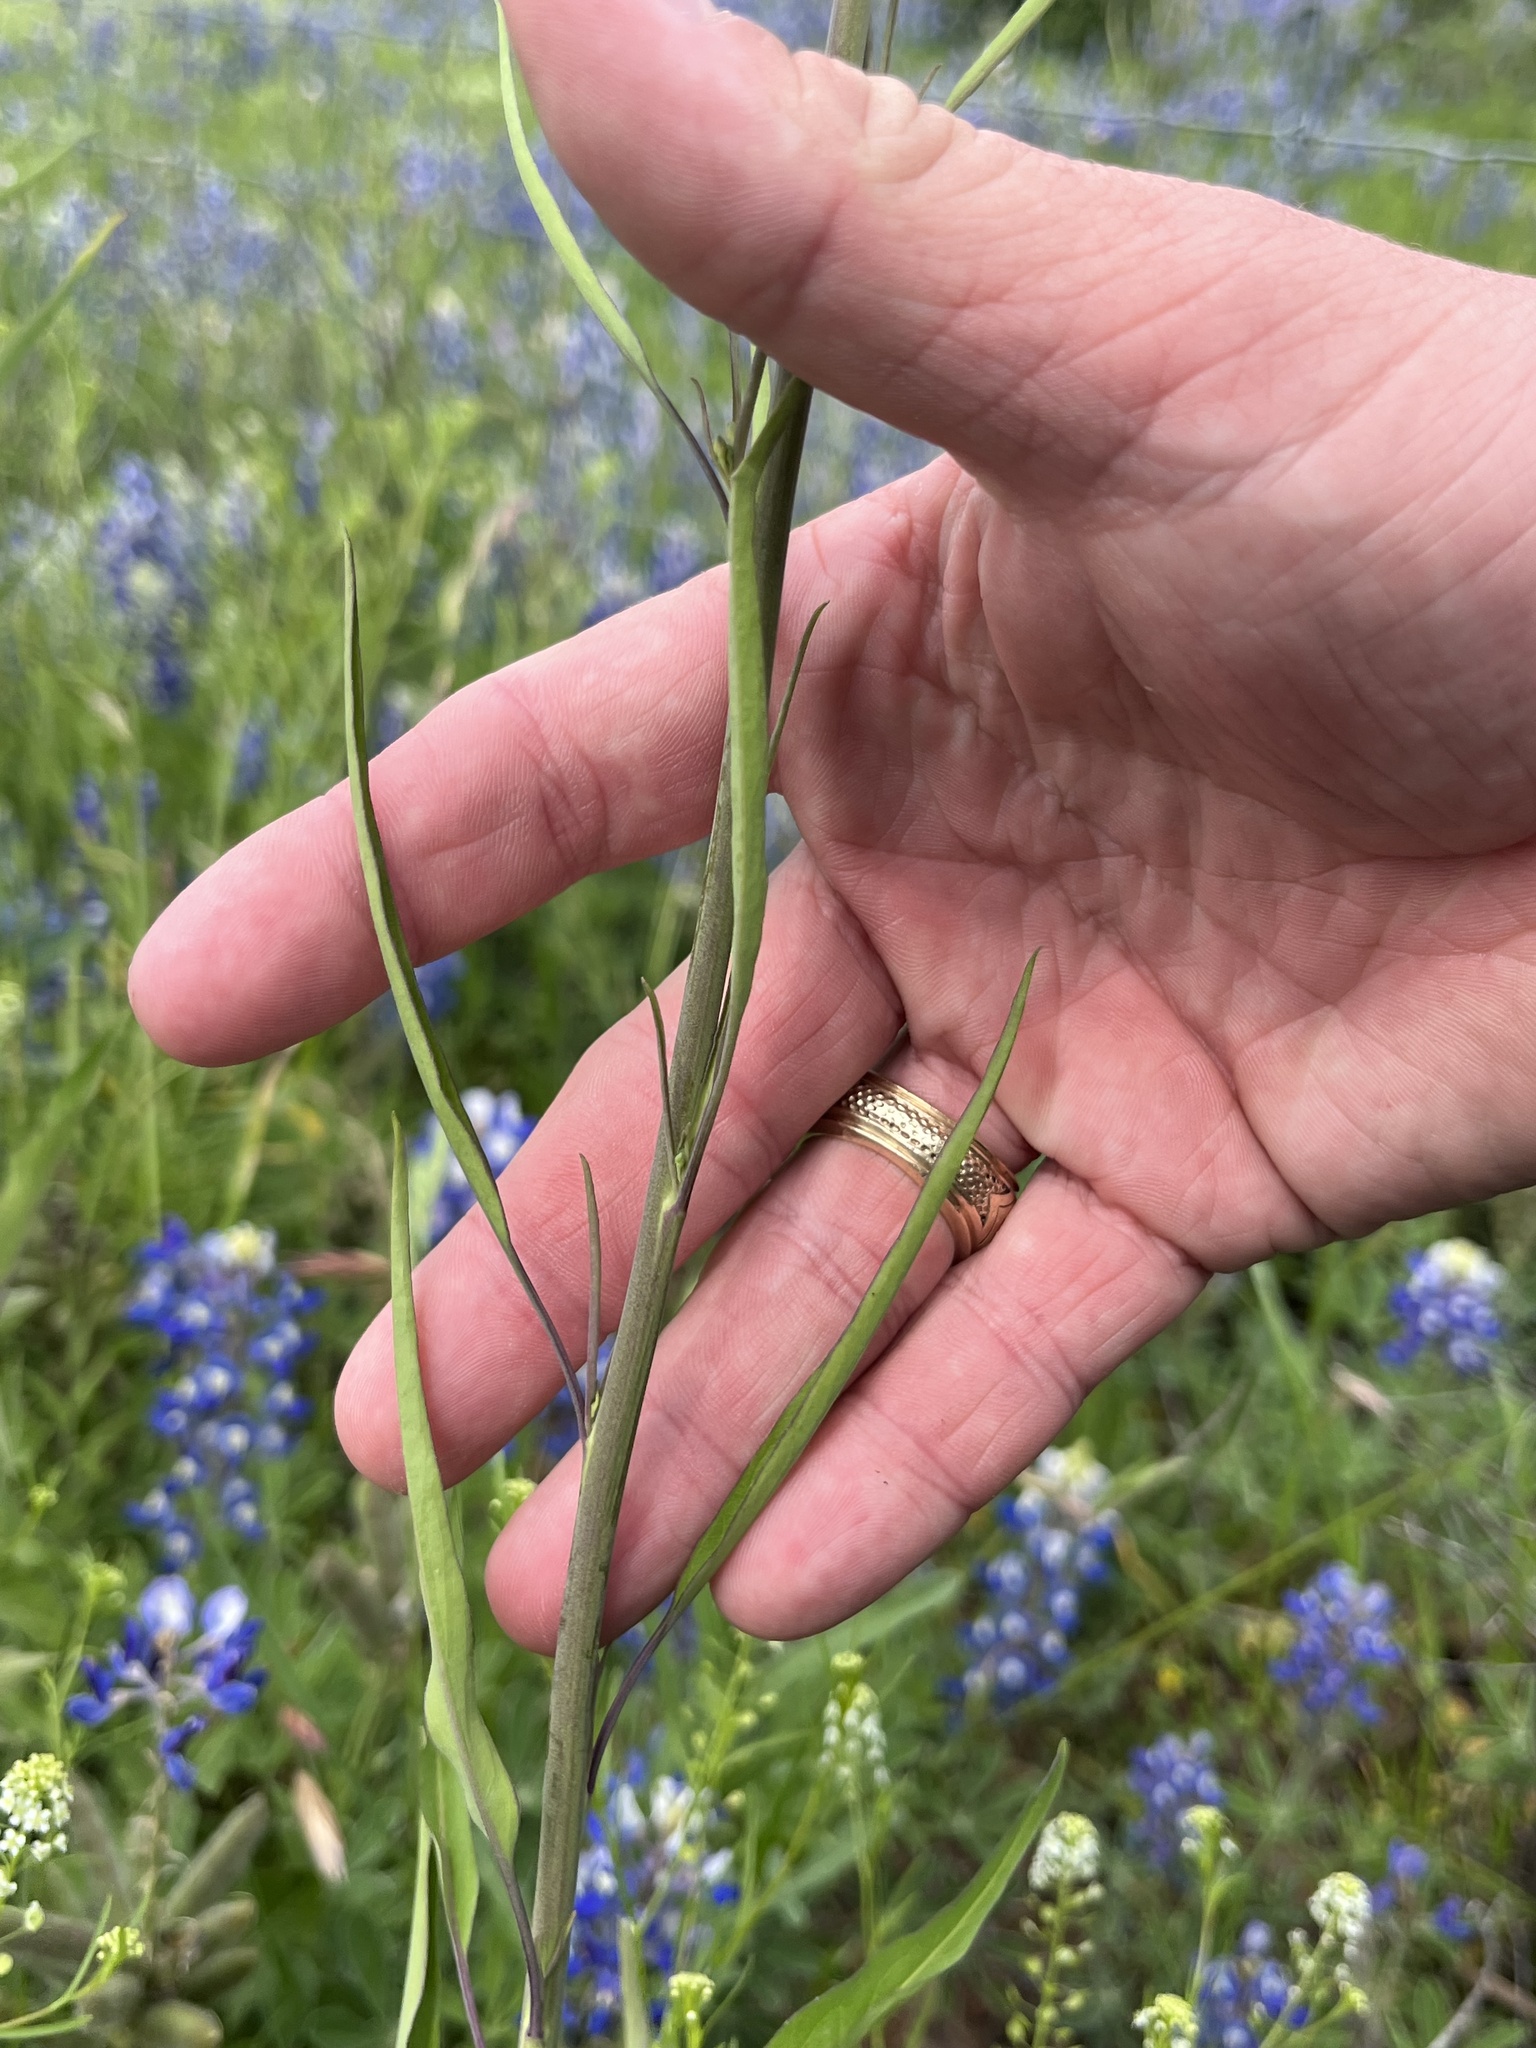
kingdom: Plantae
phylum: Tracheophyta
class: Magnoliopsida
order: Brassicales
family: Brassicaceae
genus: Streptanthus
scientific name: Streptanthus petiolaris
